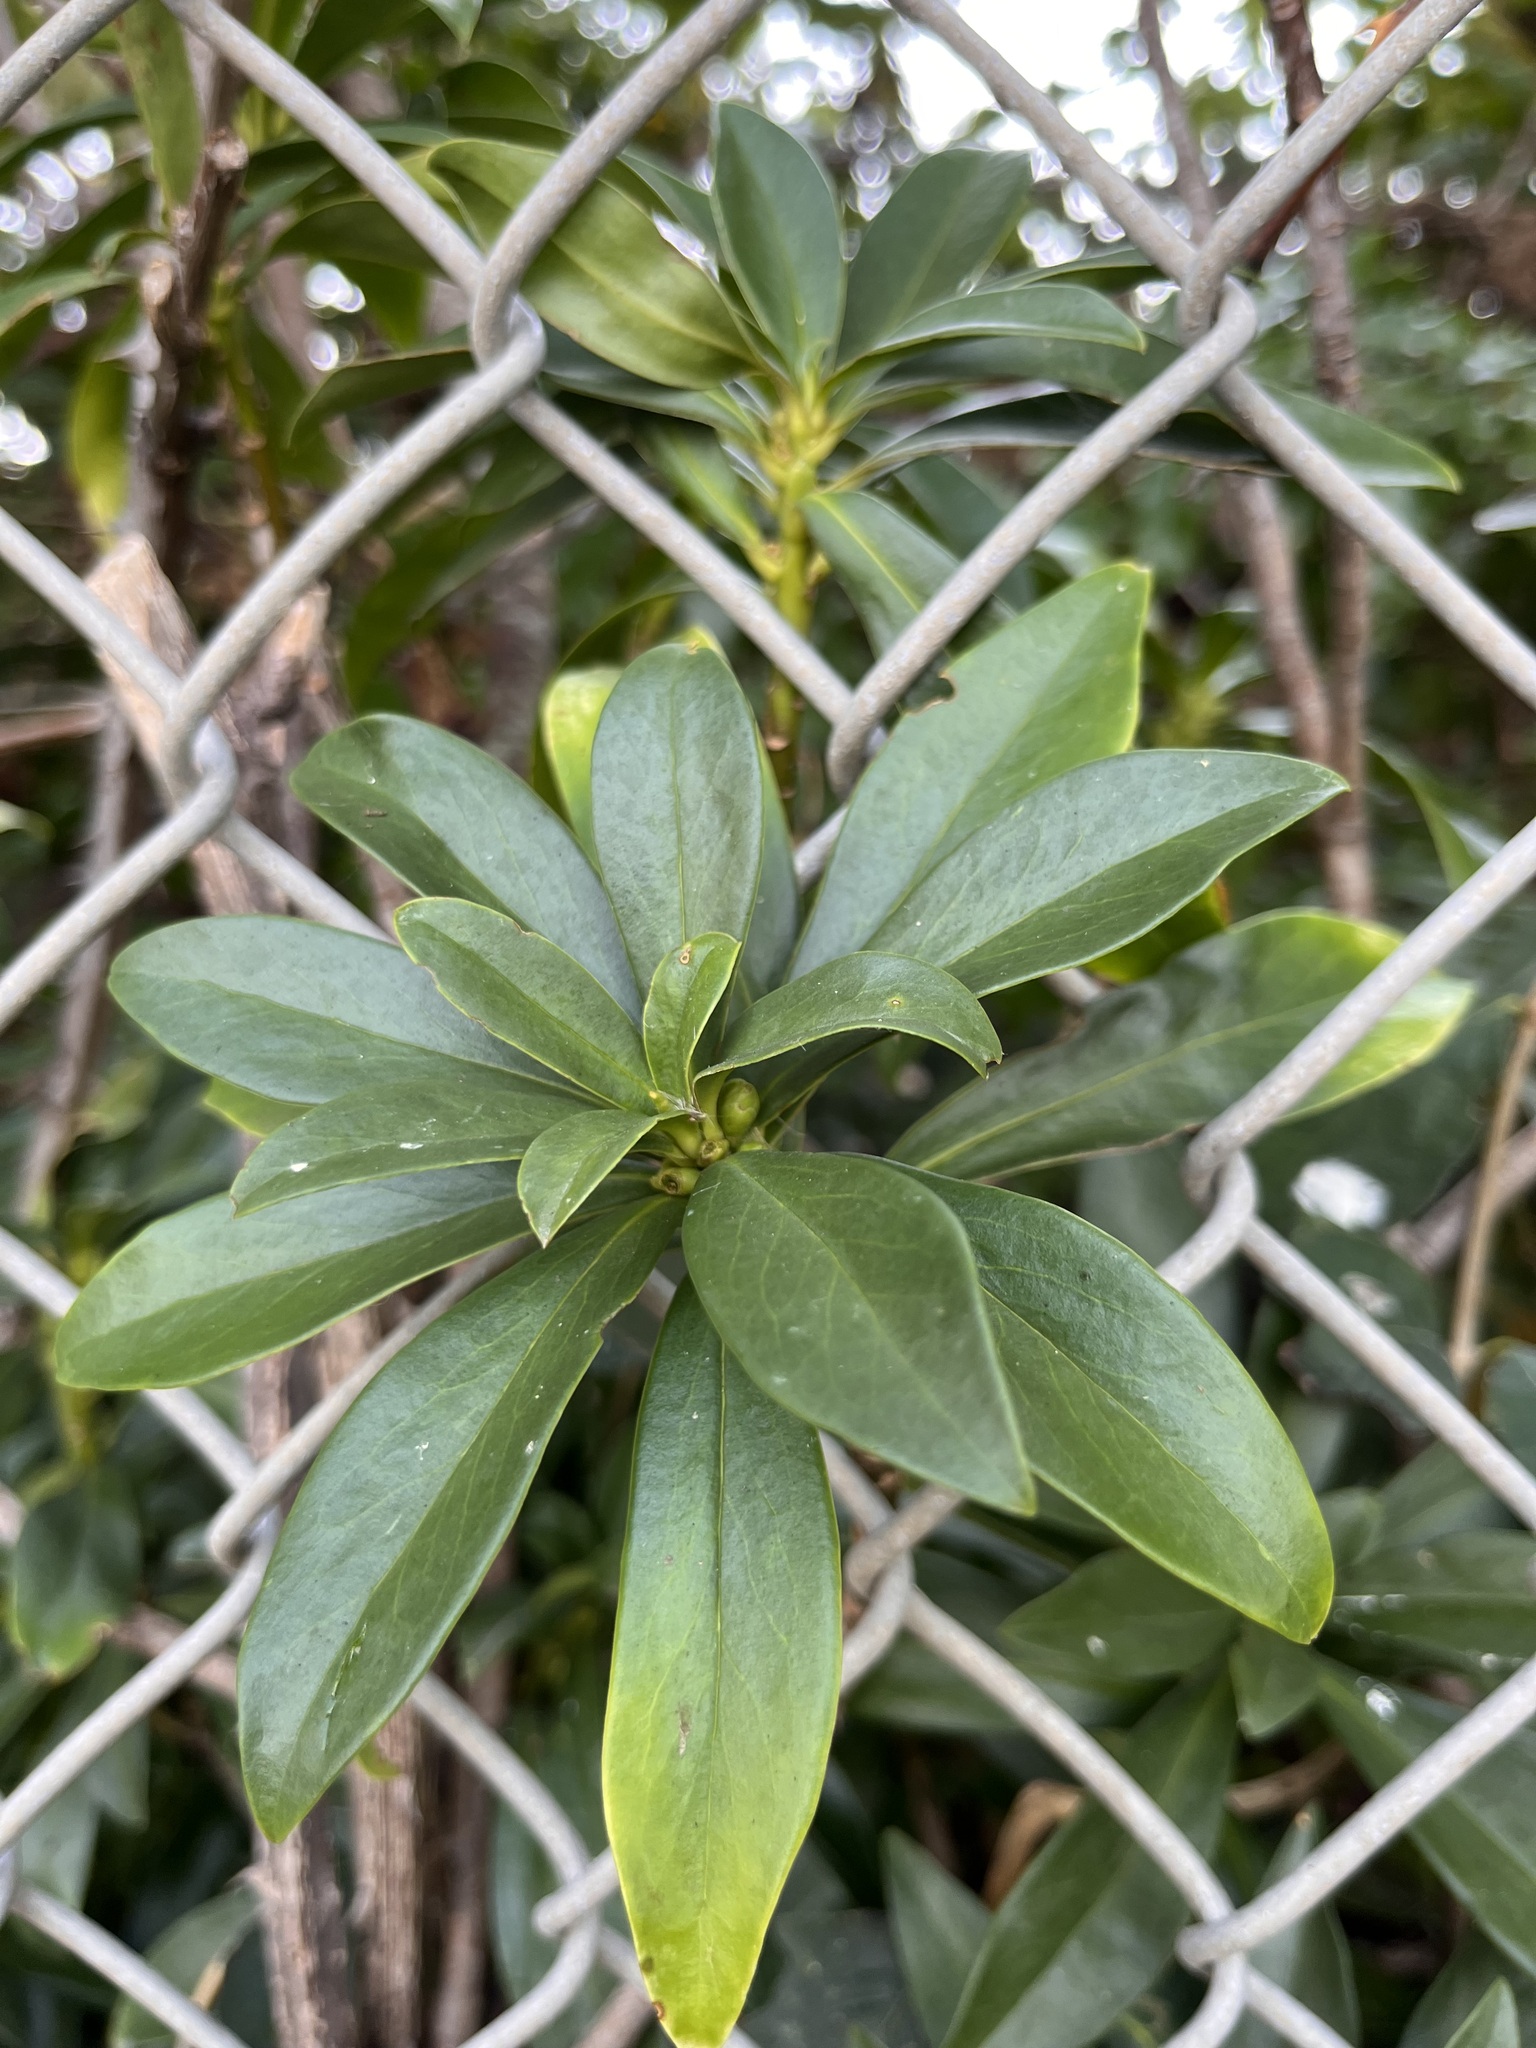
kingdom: Plantae
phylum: Tracheophyta
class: Magnoliopsida
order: Malvales
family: Thymelaeaceae
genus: Daphne
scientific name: Daphne laureola
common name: Spurge-laurel
